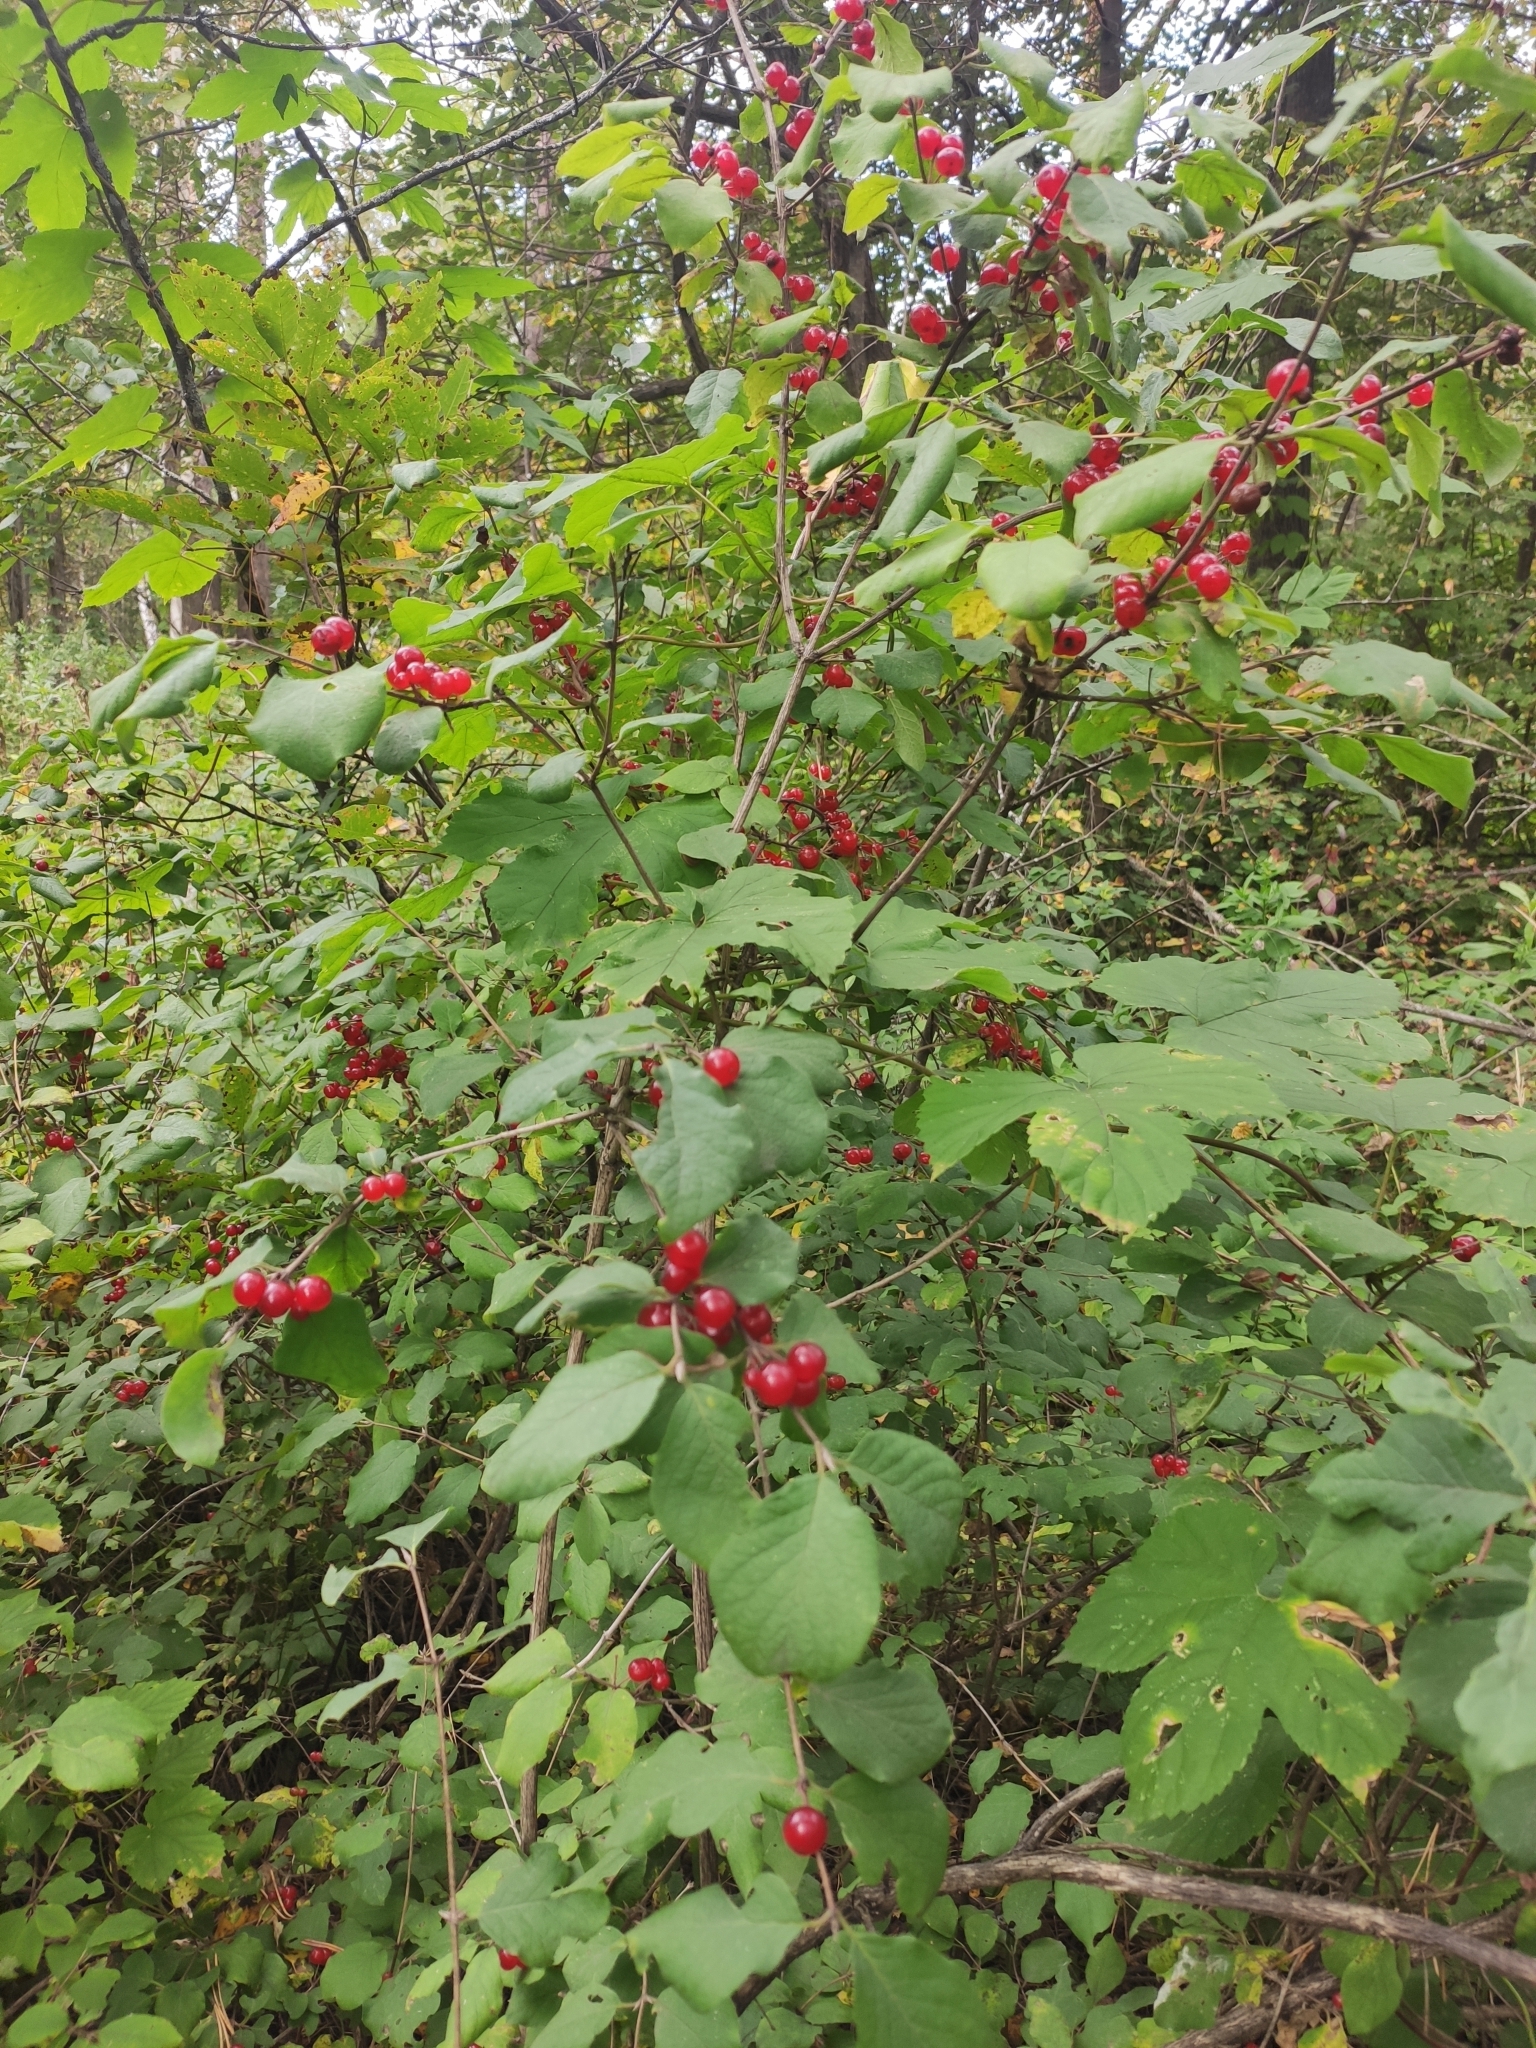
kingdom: Plantae
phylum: Tracheophyta
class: Magnoliopsida
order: Dipsacales
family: Caprifoliaceae
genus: Lonicera
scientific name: Lonicera xylosteum
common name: Fly honeysuckle
